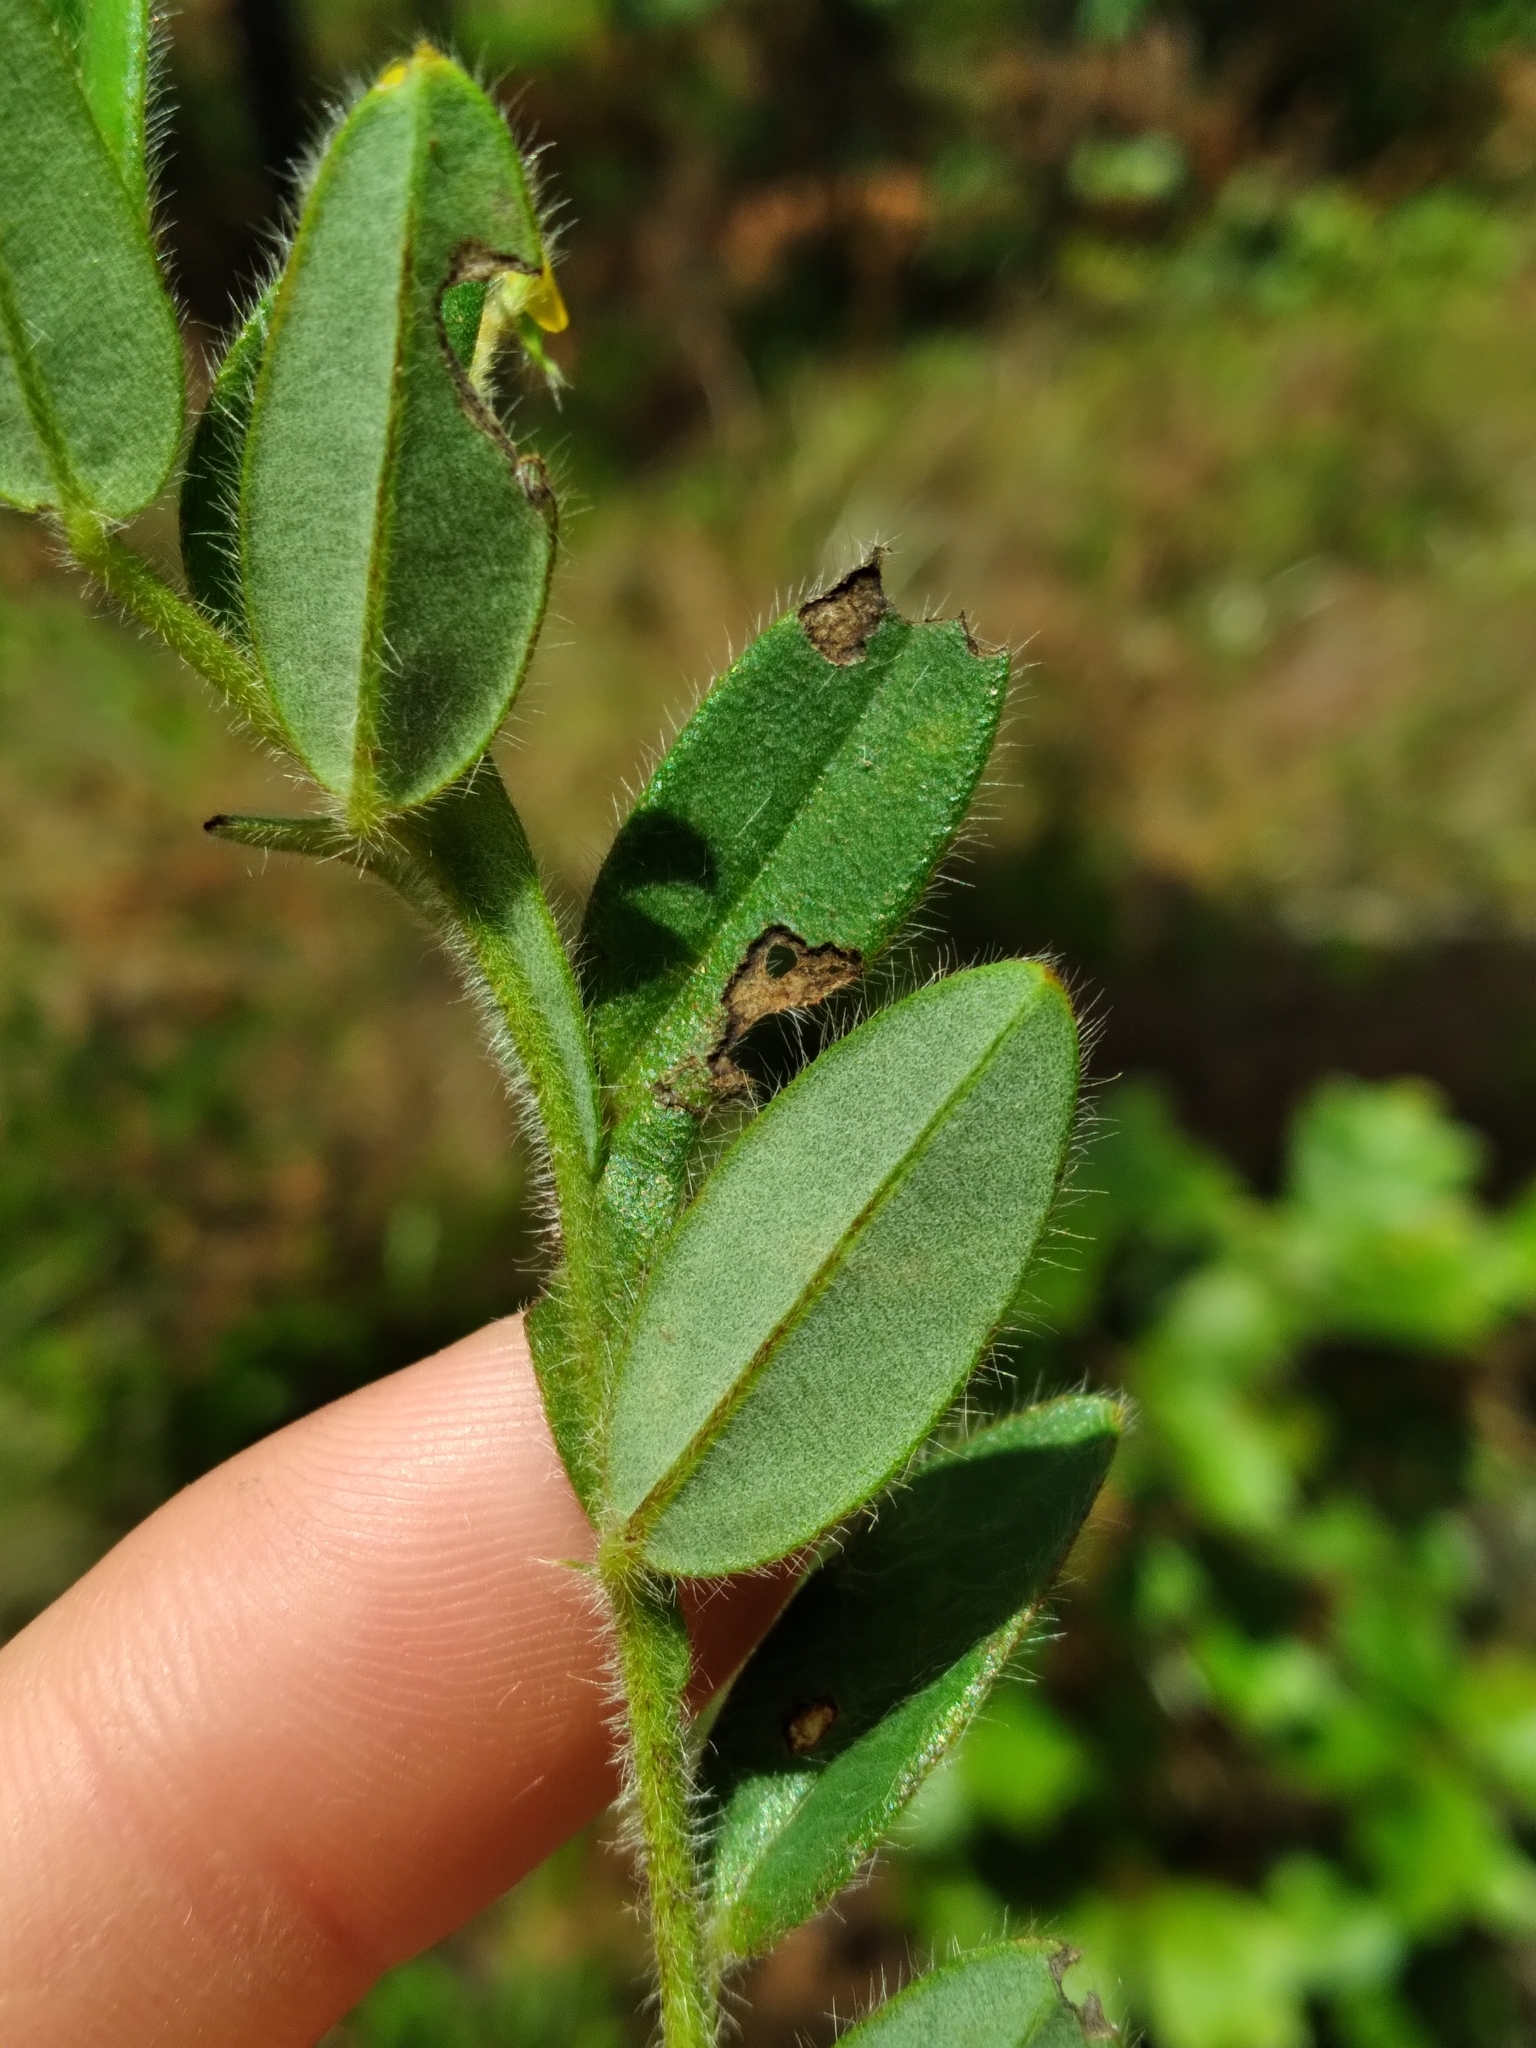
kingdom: Plantae
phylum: Tracheophyta
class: Magnoliopsida
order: Fabales
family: Fabaceae
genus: Crotalaria
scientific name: Crotalaria rotundifolia
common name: Prostrate rattlebox
